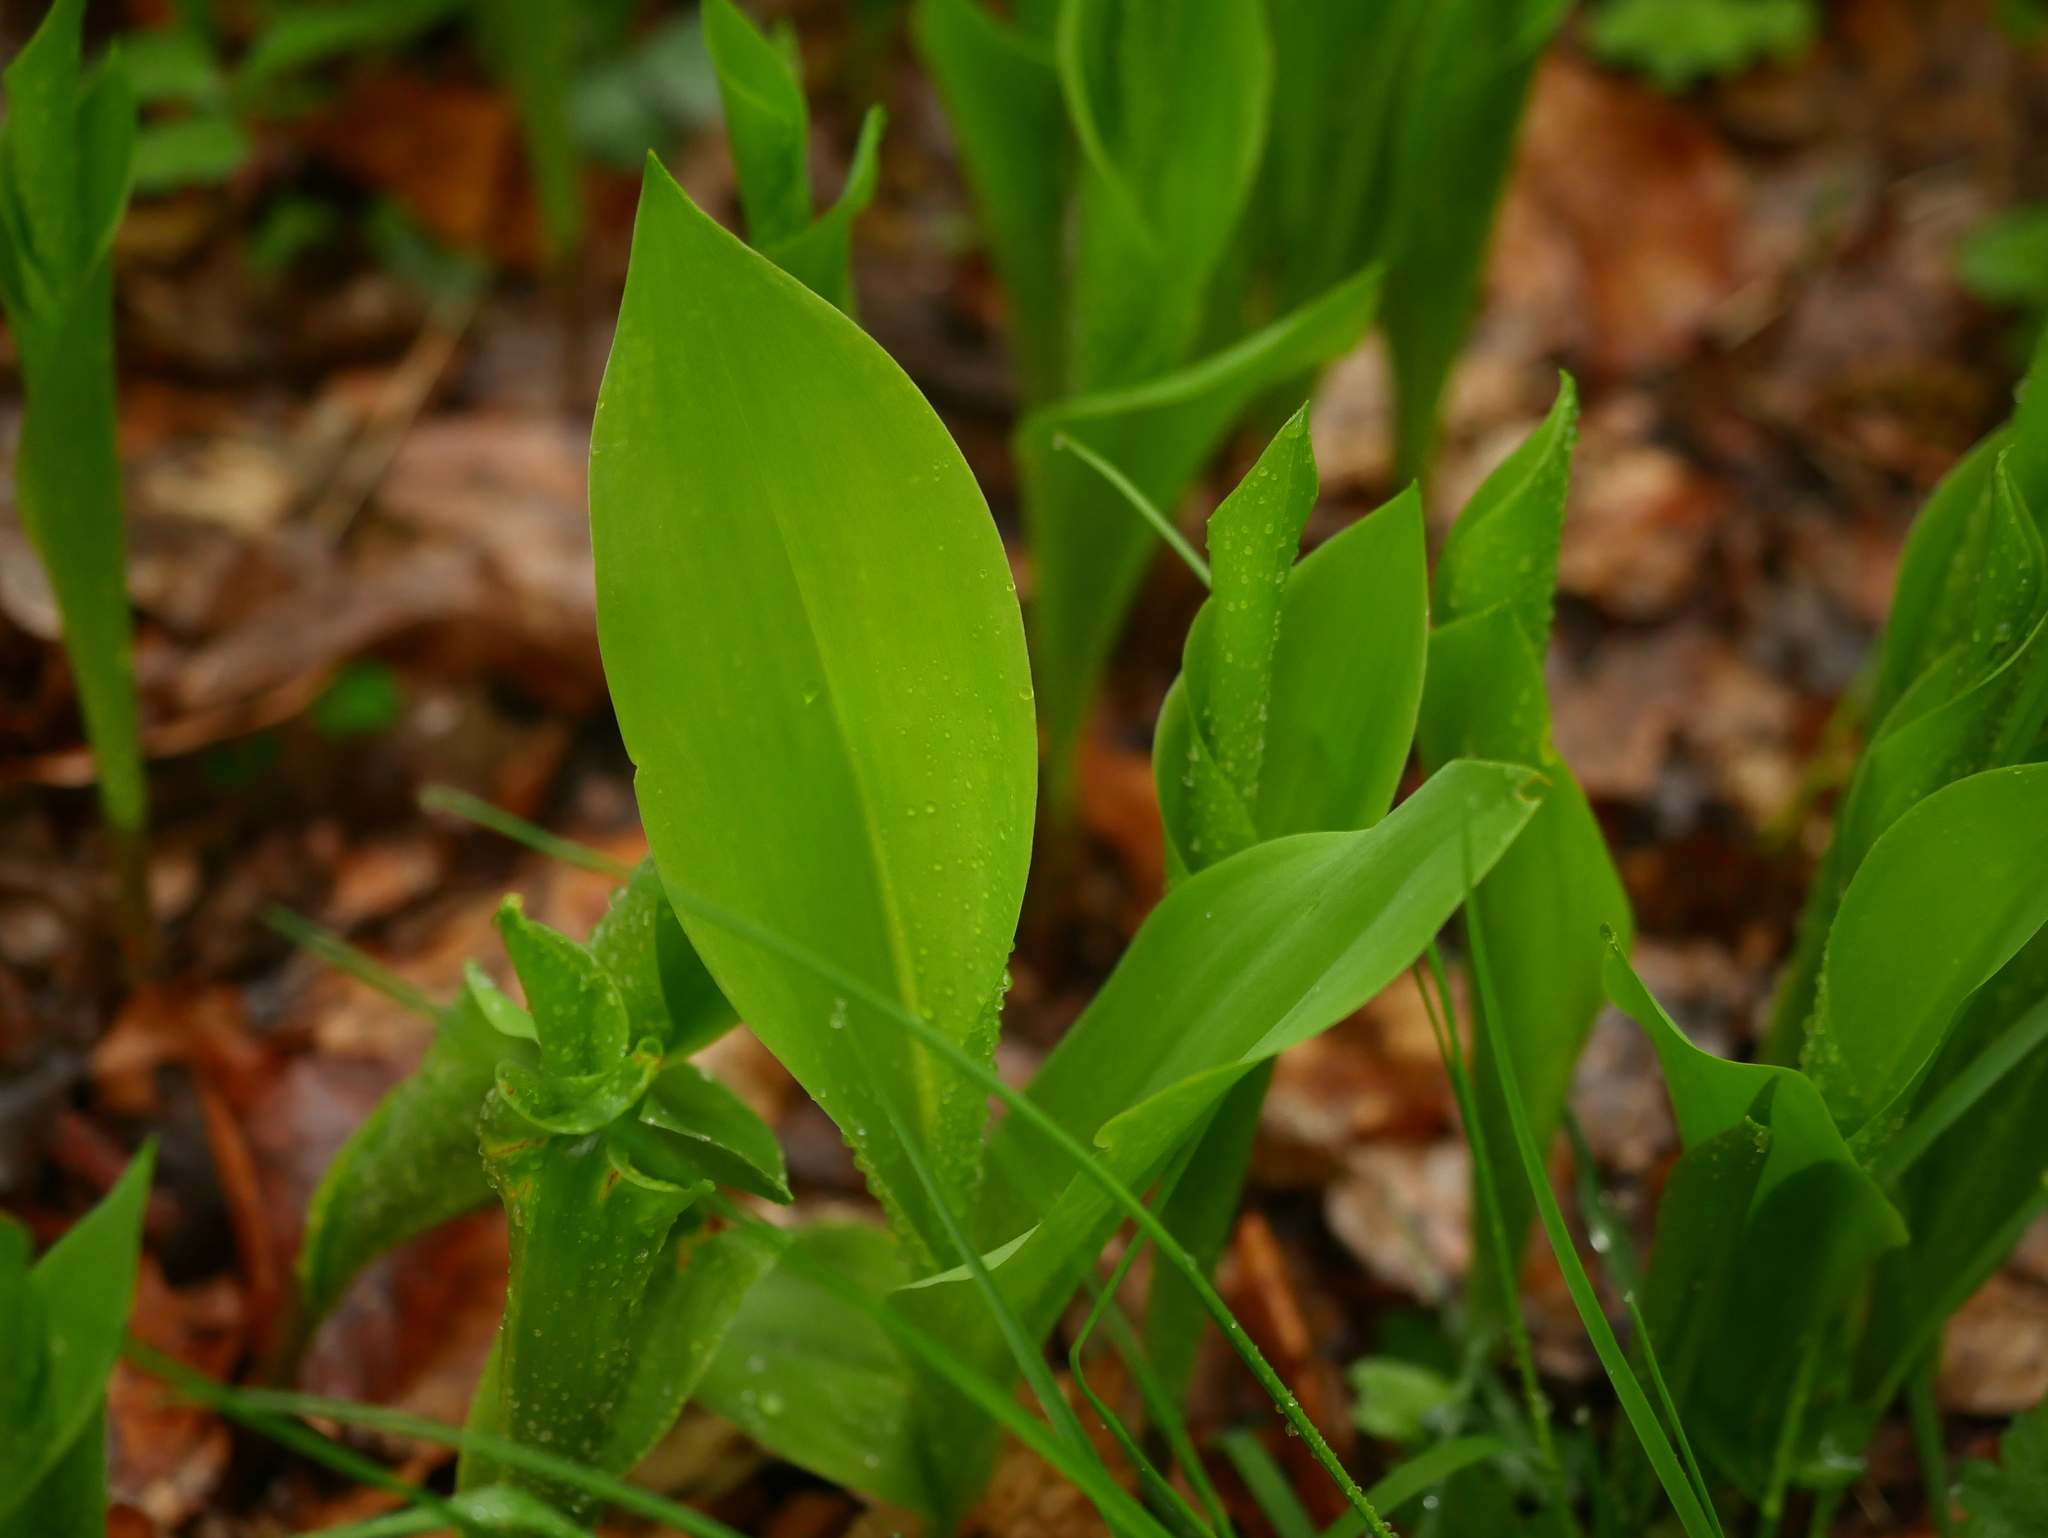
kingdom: Plantae
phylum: Tracheophyta
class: Liliopsida
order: Asparagales
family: Asparagaceae
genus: Convallaria
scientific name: Convallaria majalis
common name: Lily-of-the-valley
